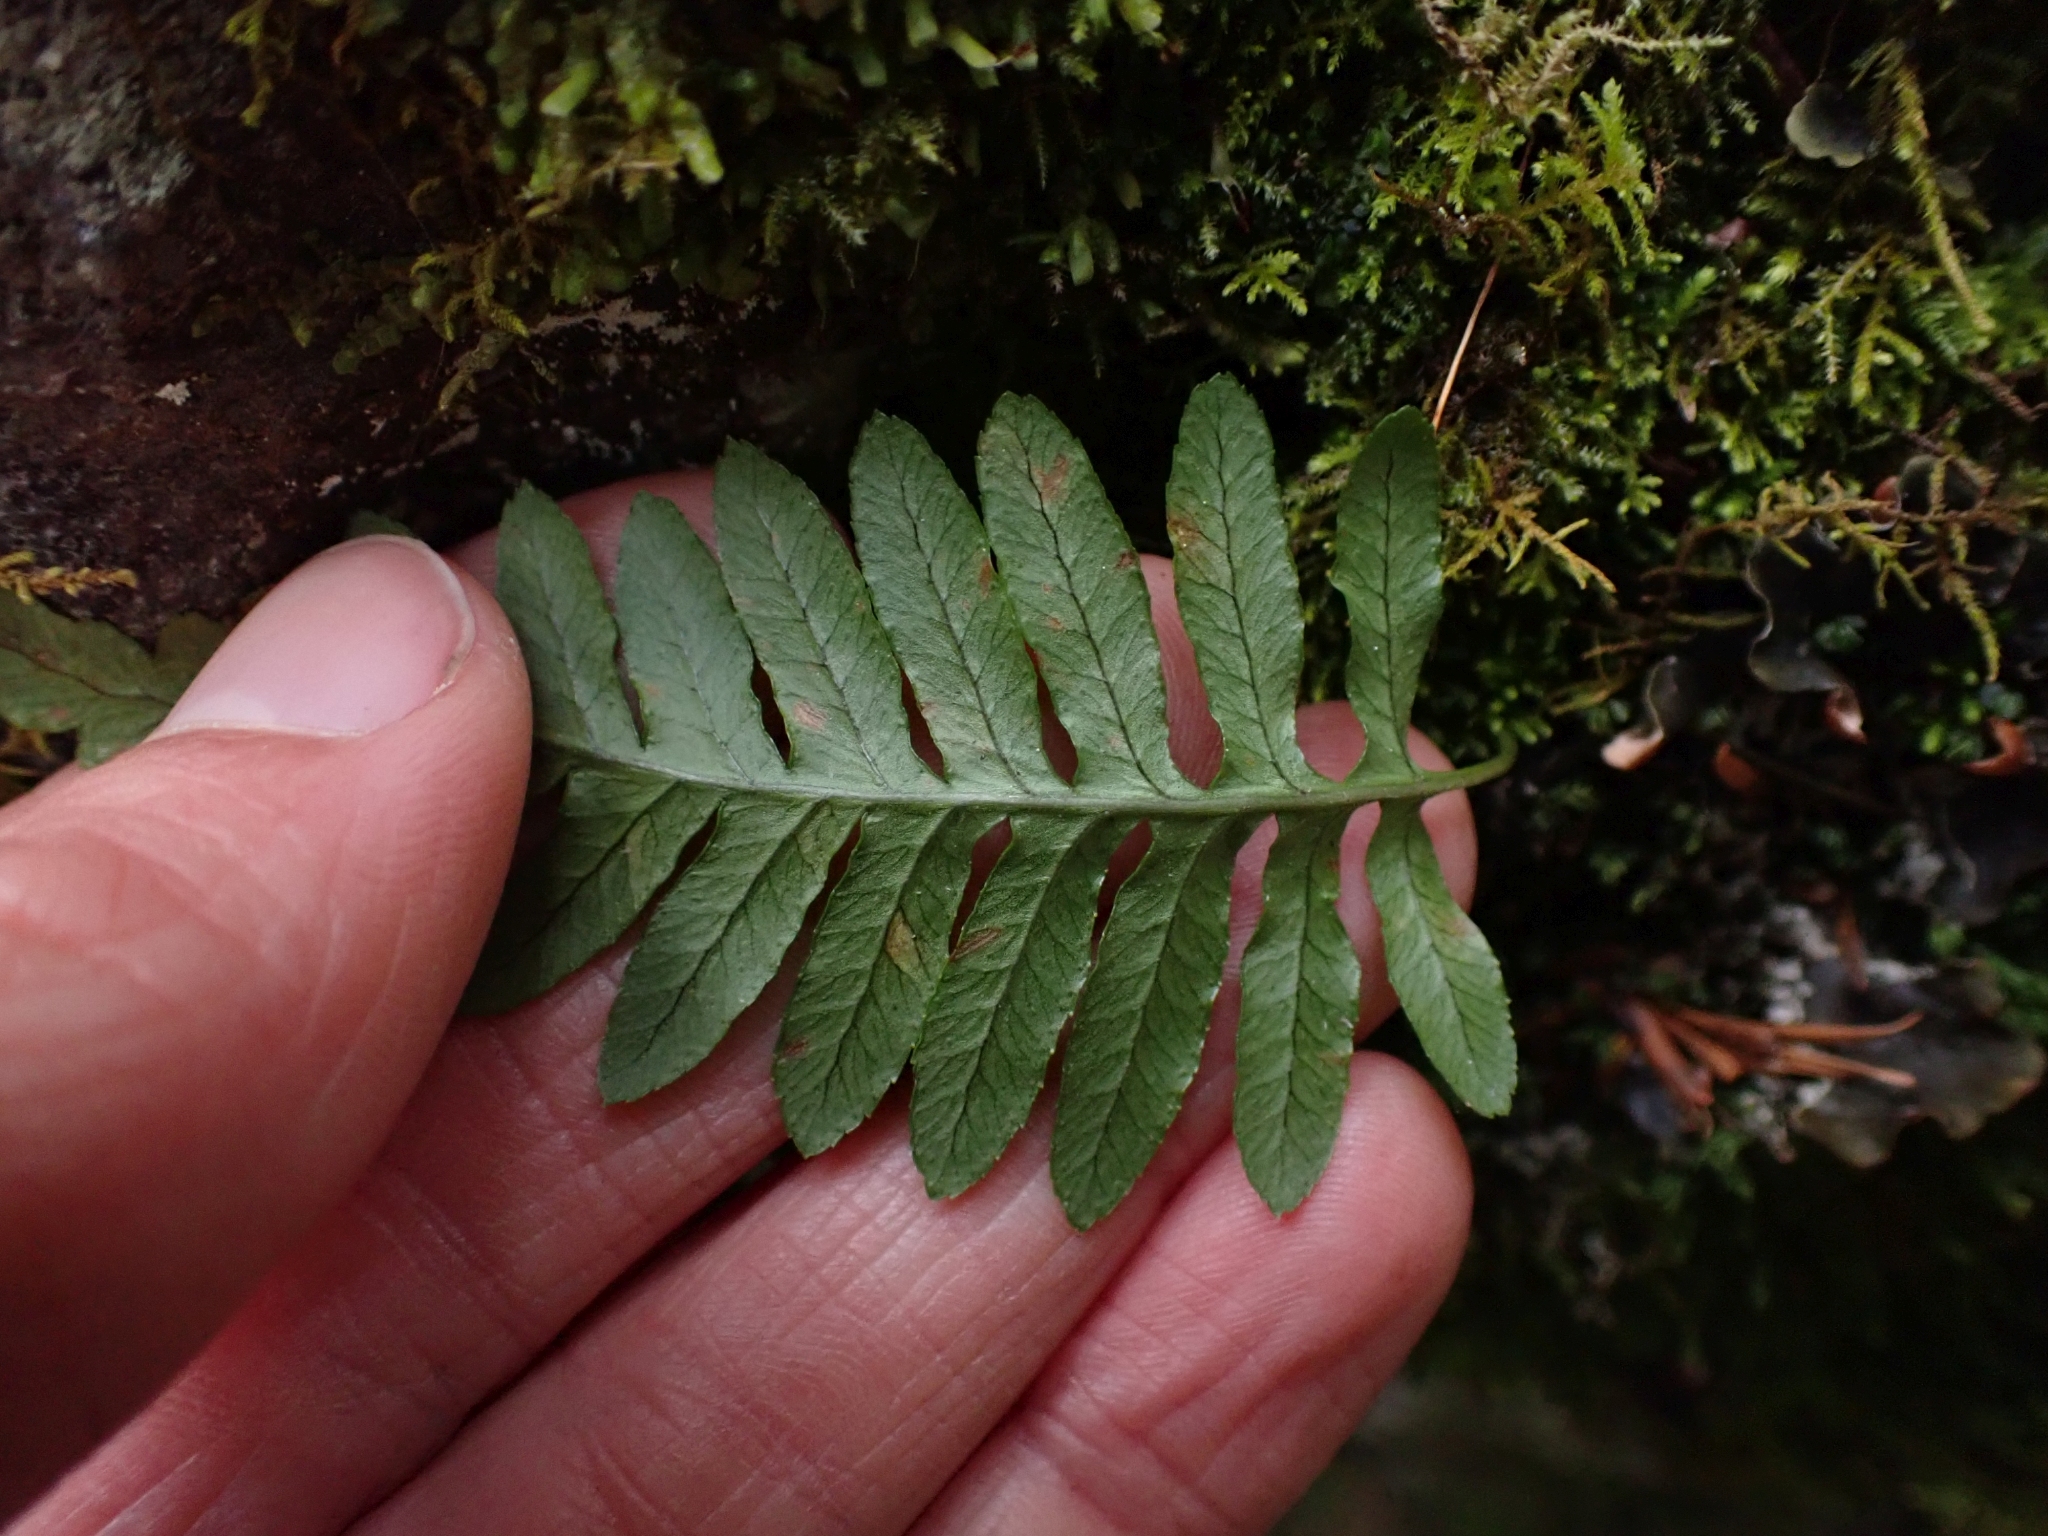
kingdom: Plantae
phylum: Tracheophyta
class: Polypodiopsida
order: Polypodiales
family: Polypodiaceae
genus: Polypodium
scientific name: Polypodium glycyrrhiza
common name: Licorice fern
